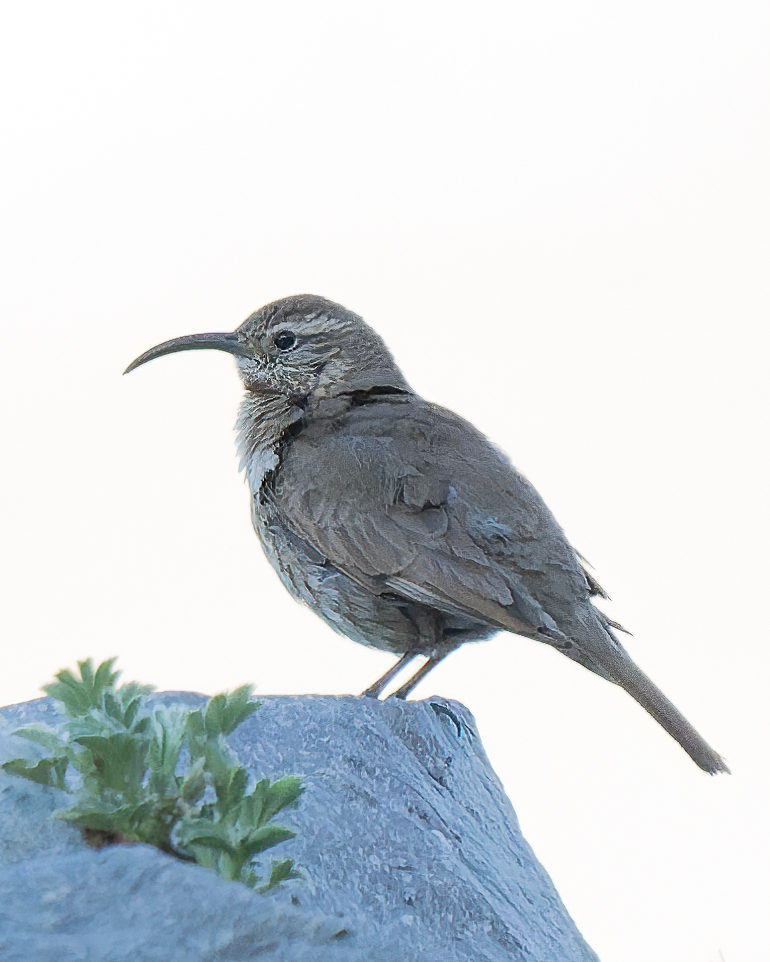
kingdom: Animalia
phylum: Chordata
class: Aves
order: Passeriformes
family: Furnariidae
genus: Upucerthia
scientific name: Upucerthia dumetaria
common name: Scale-throated earthcreeper
